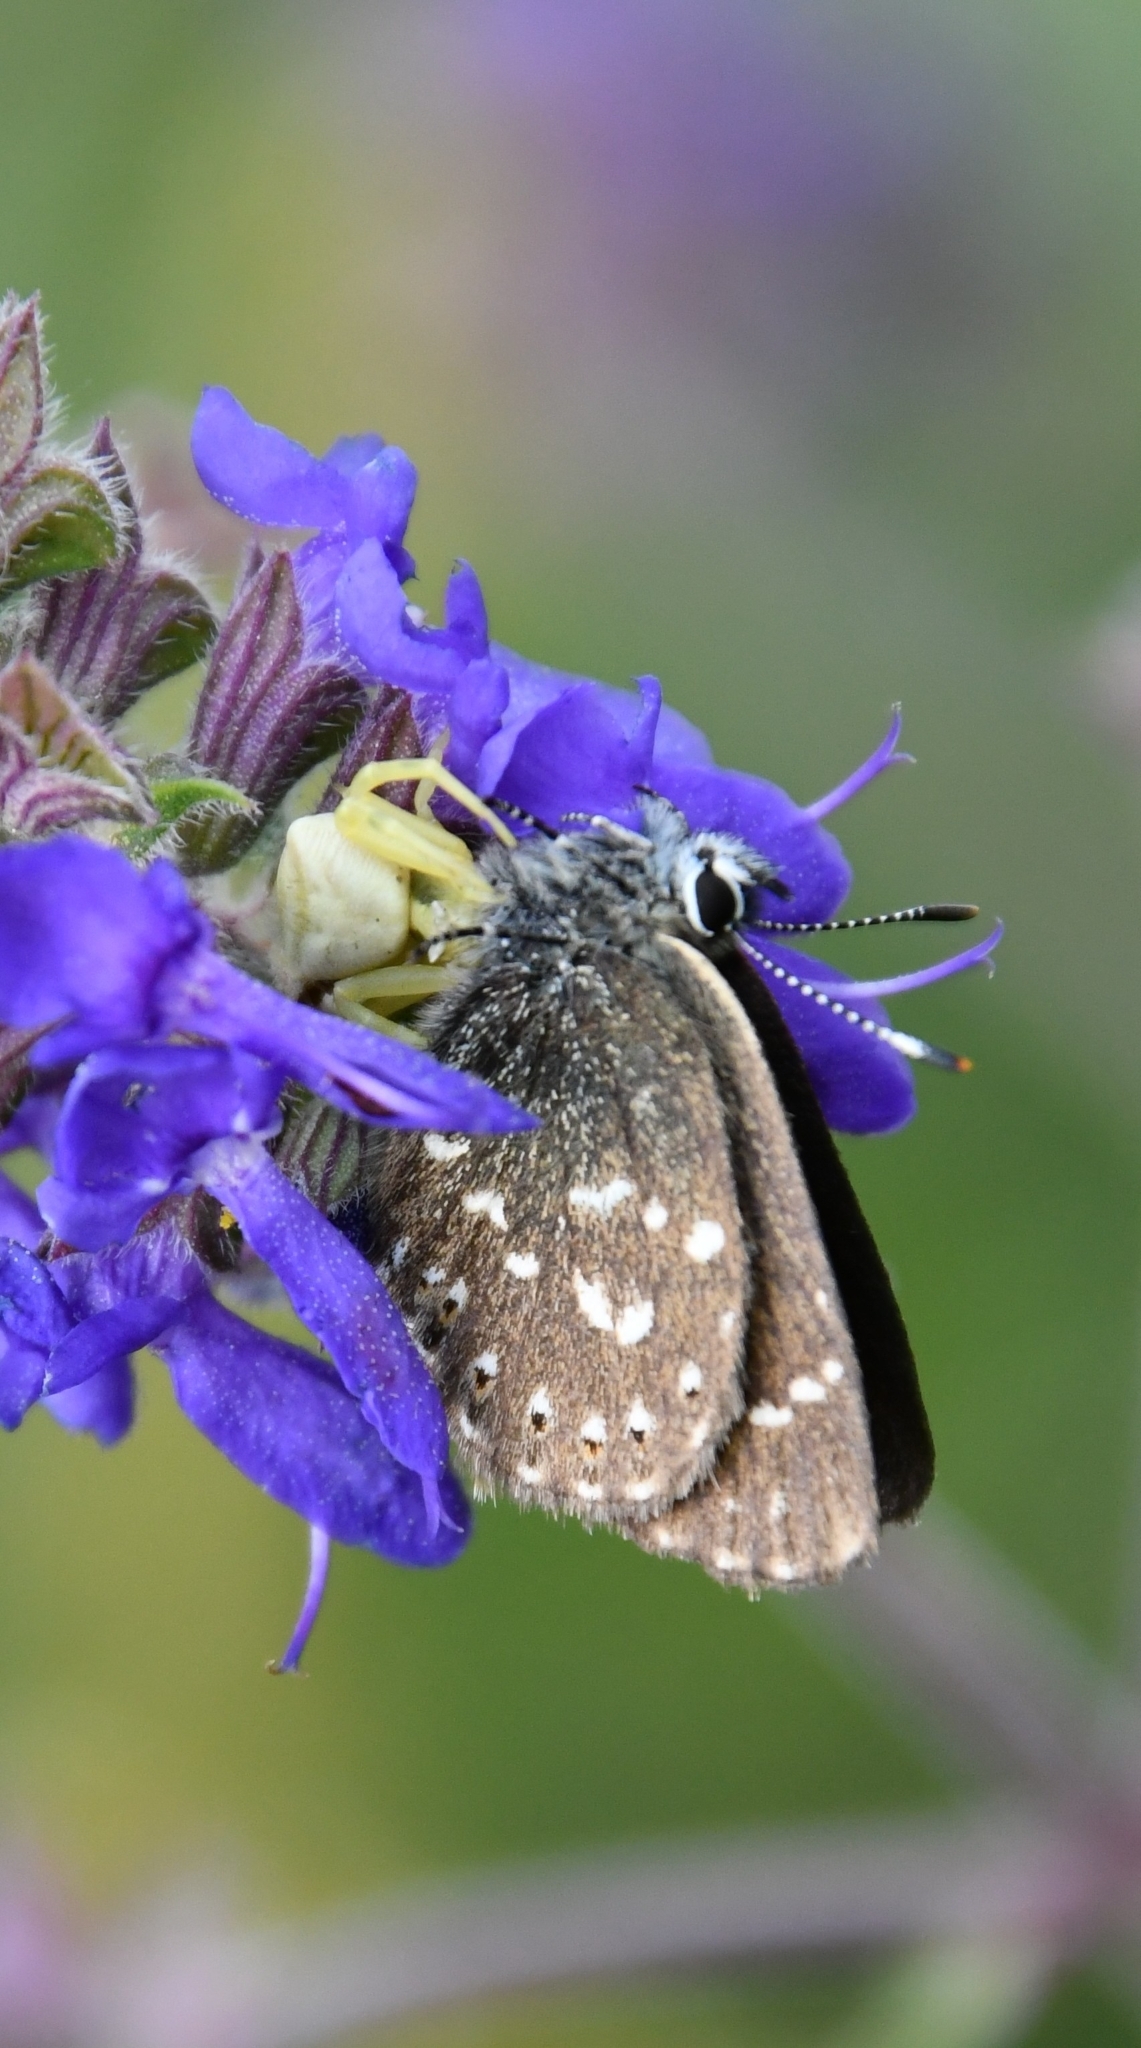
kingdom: Animalia
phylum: Arthropoda
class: Insecta
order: Lepidoptera
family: Lycaenidae
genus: Thecla
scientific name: Thecla rhymnus
